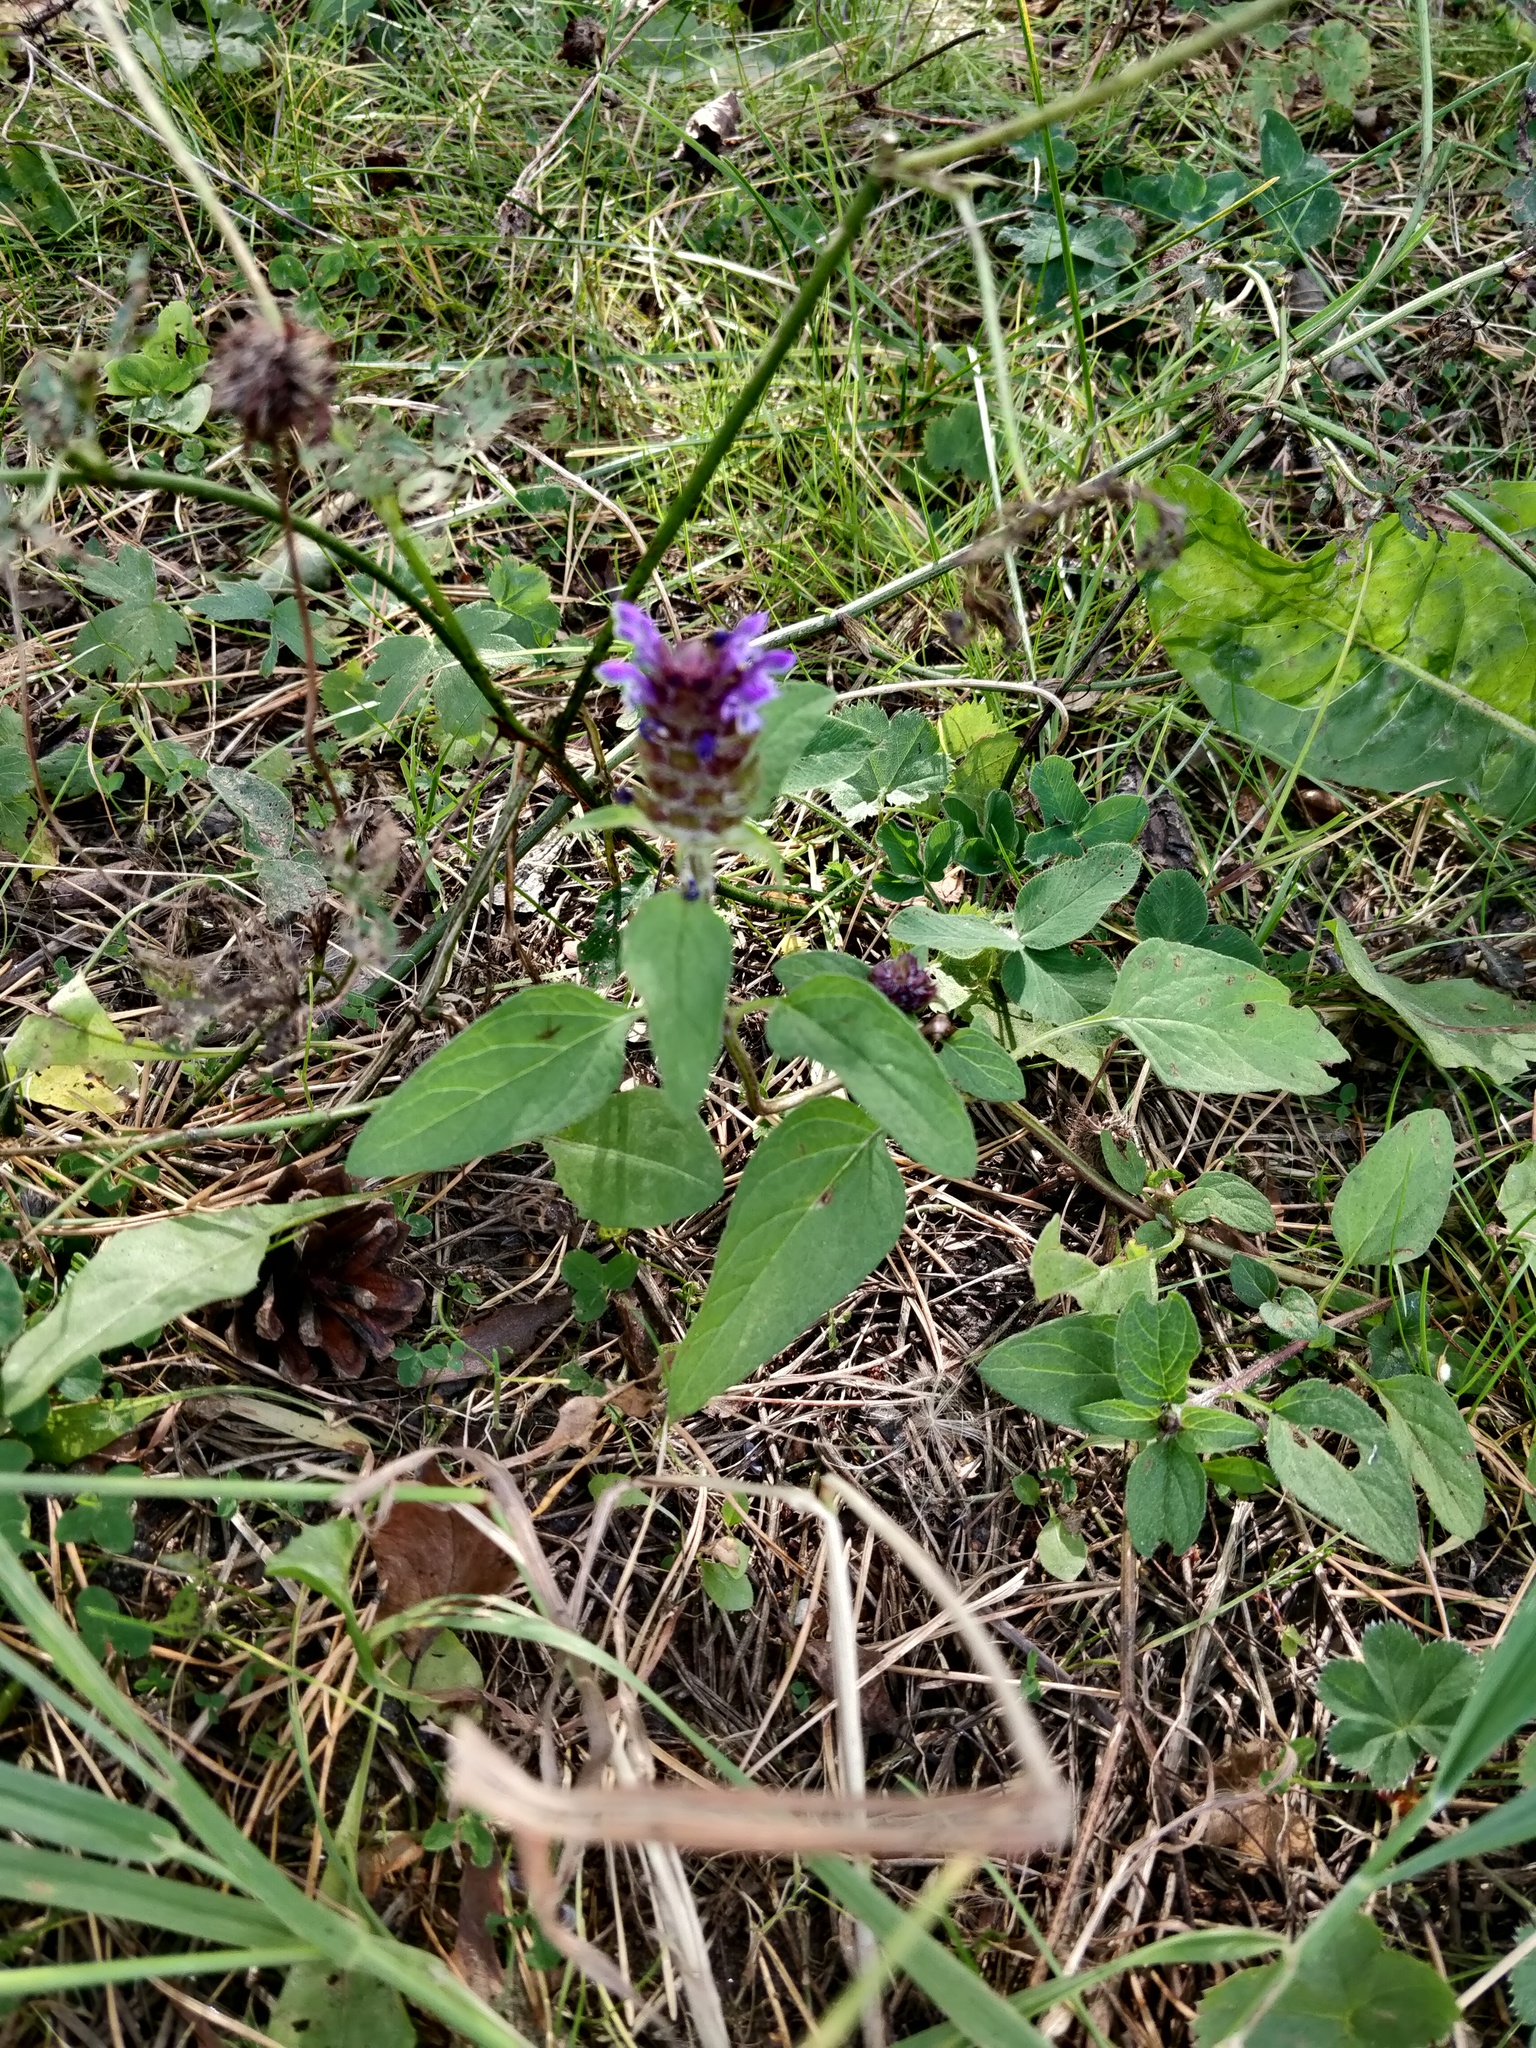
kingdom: Plantae
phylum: Tracheophyta
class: Magnoliopsida
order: Lamiales
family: Lamiaceae
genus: Prunella
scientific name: Prunella vulgaris
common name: Heal-all
